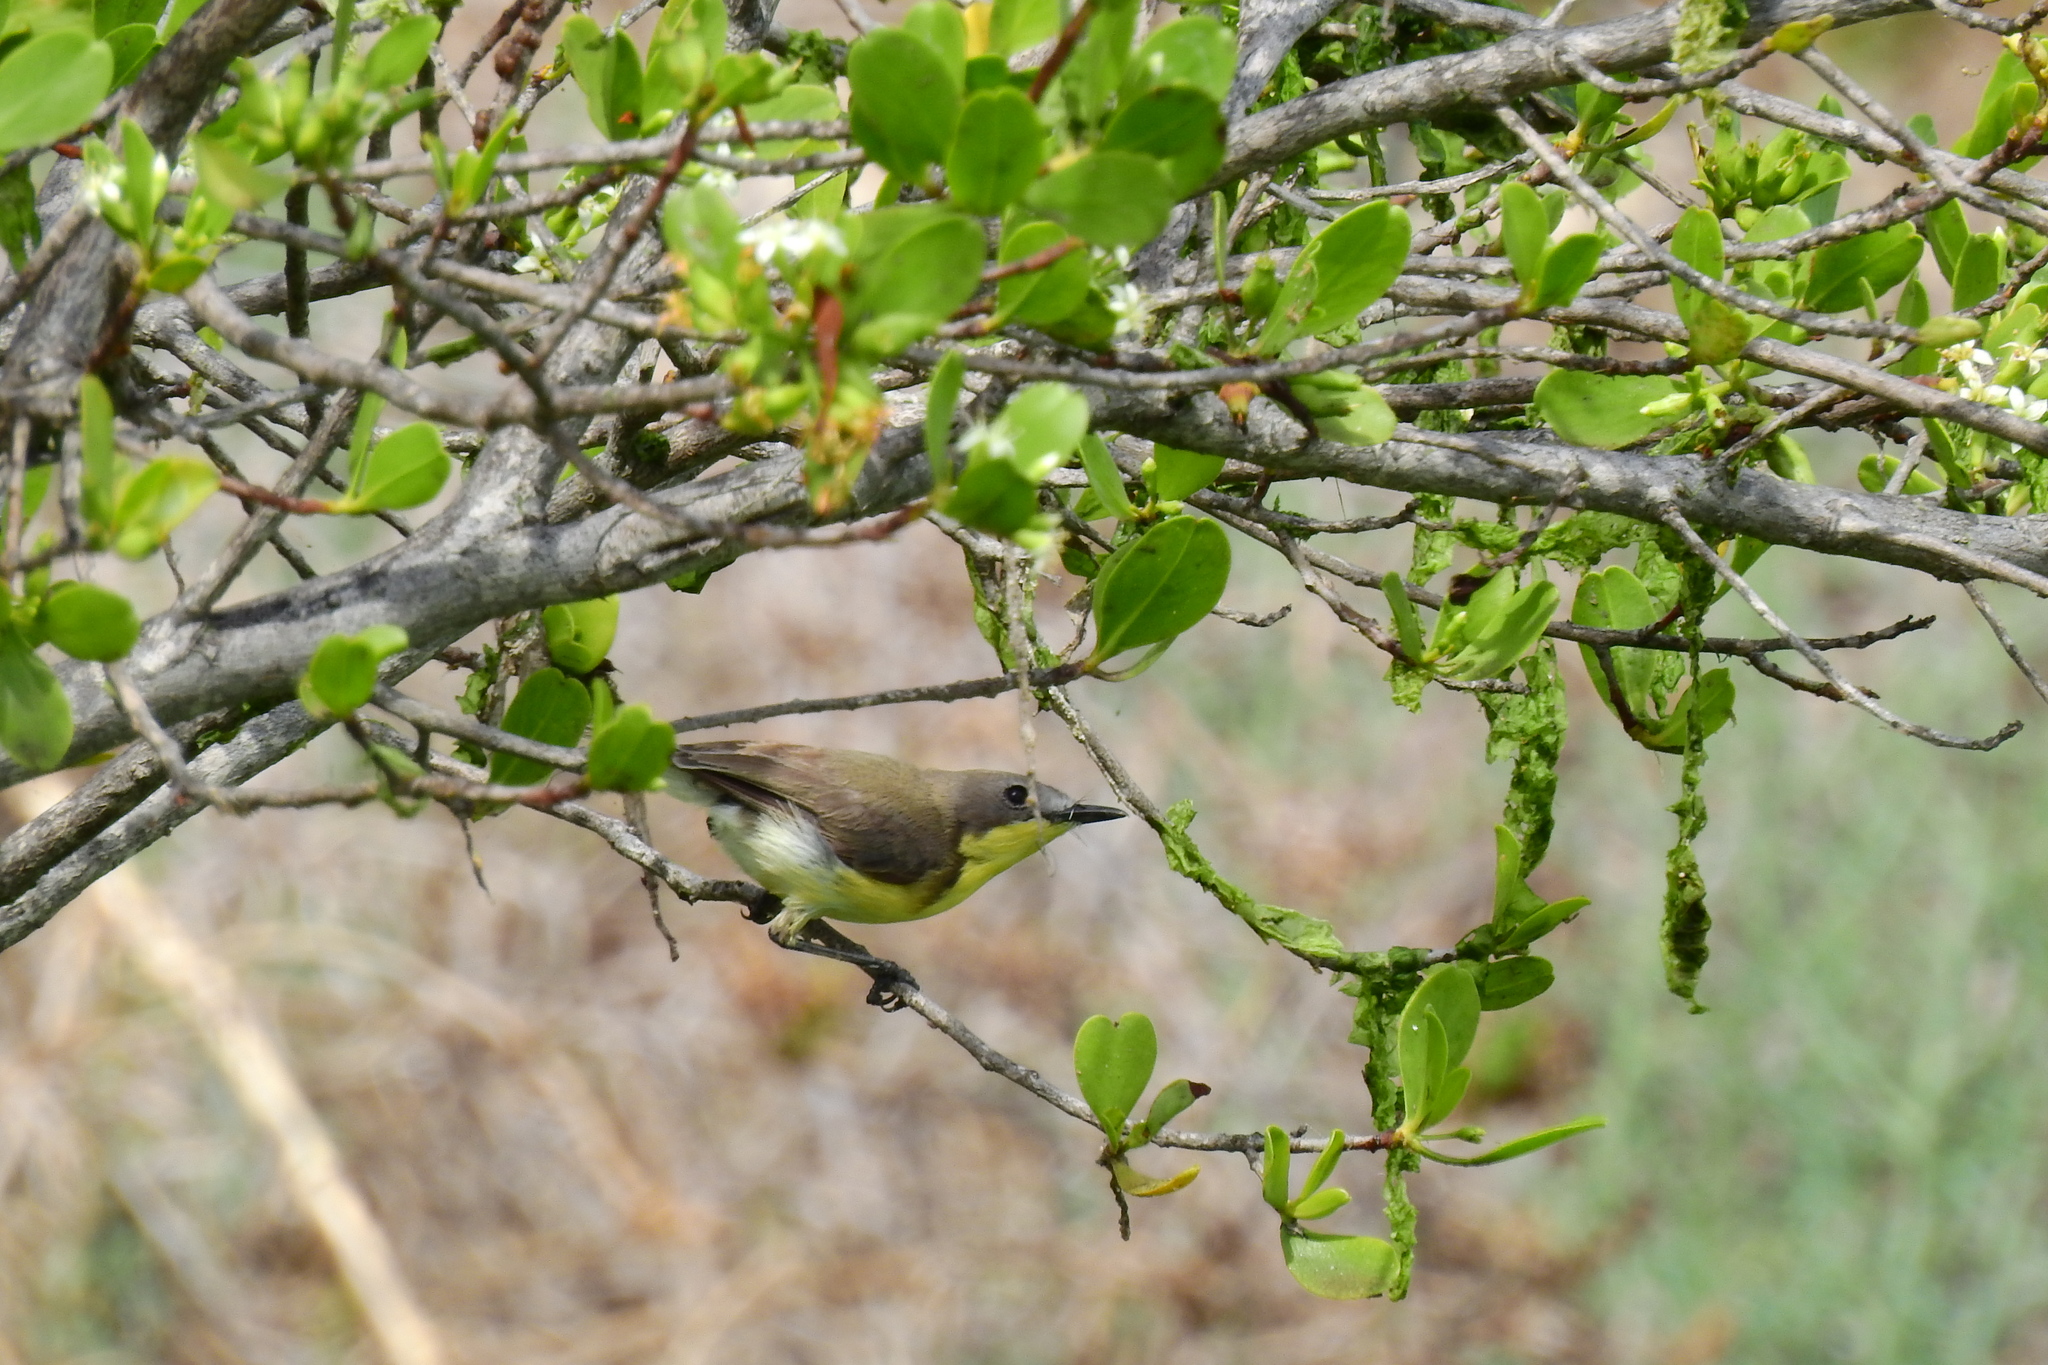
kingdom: Animalia
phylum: Chordata
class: Aves
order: Passeriformes
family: Acanthizidae
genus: Gerygone
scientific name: Gerygone sulphurea
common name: Golden-bellied gerygone
